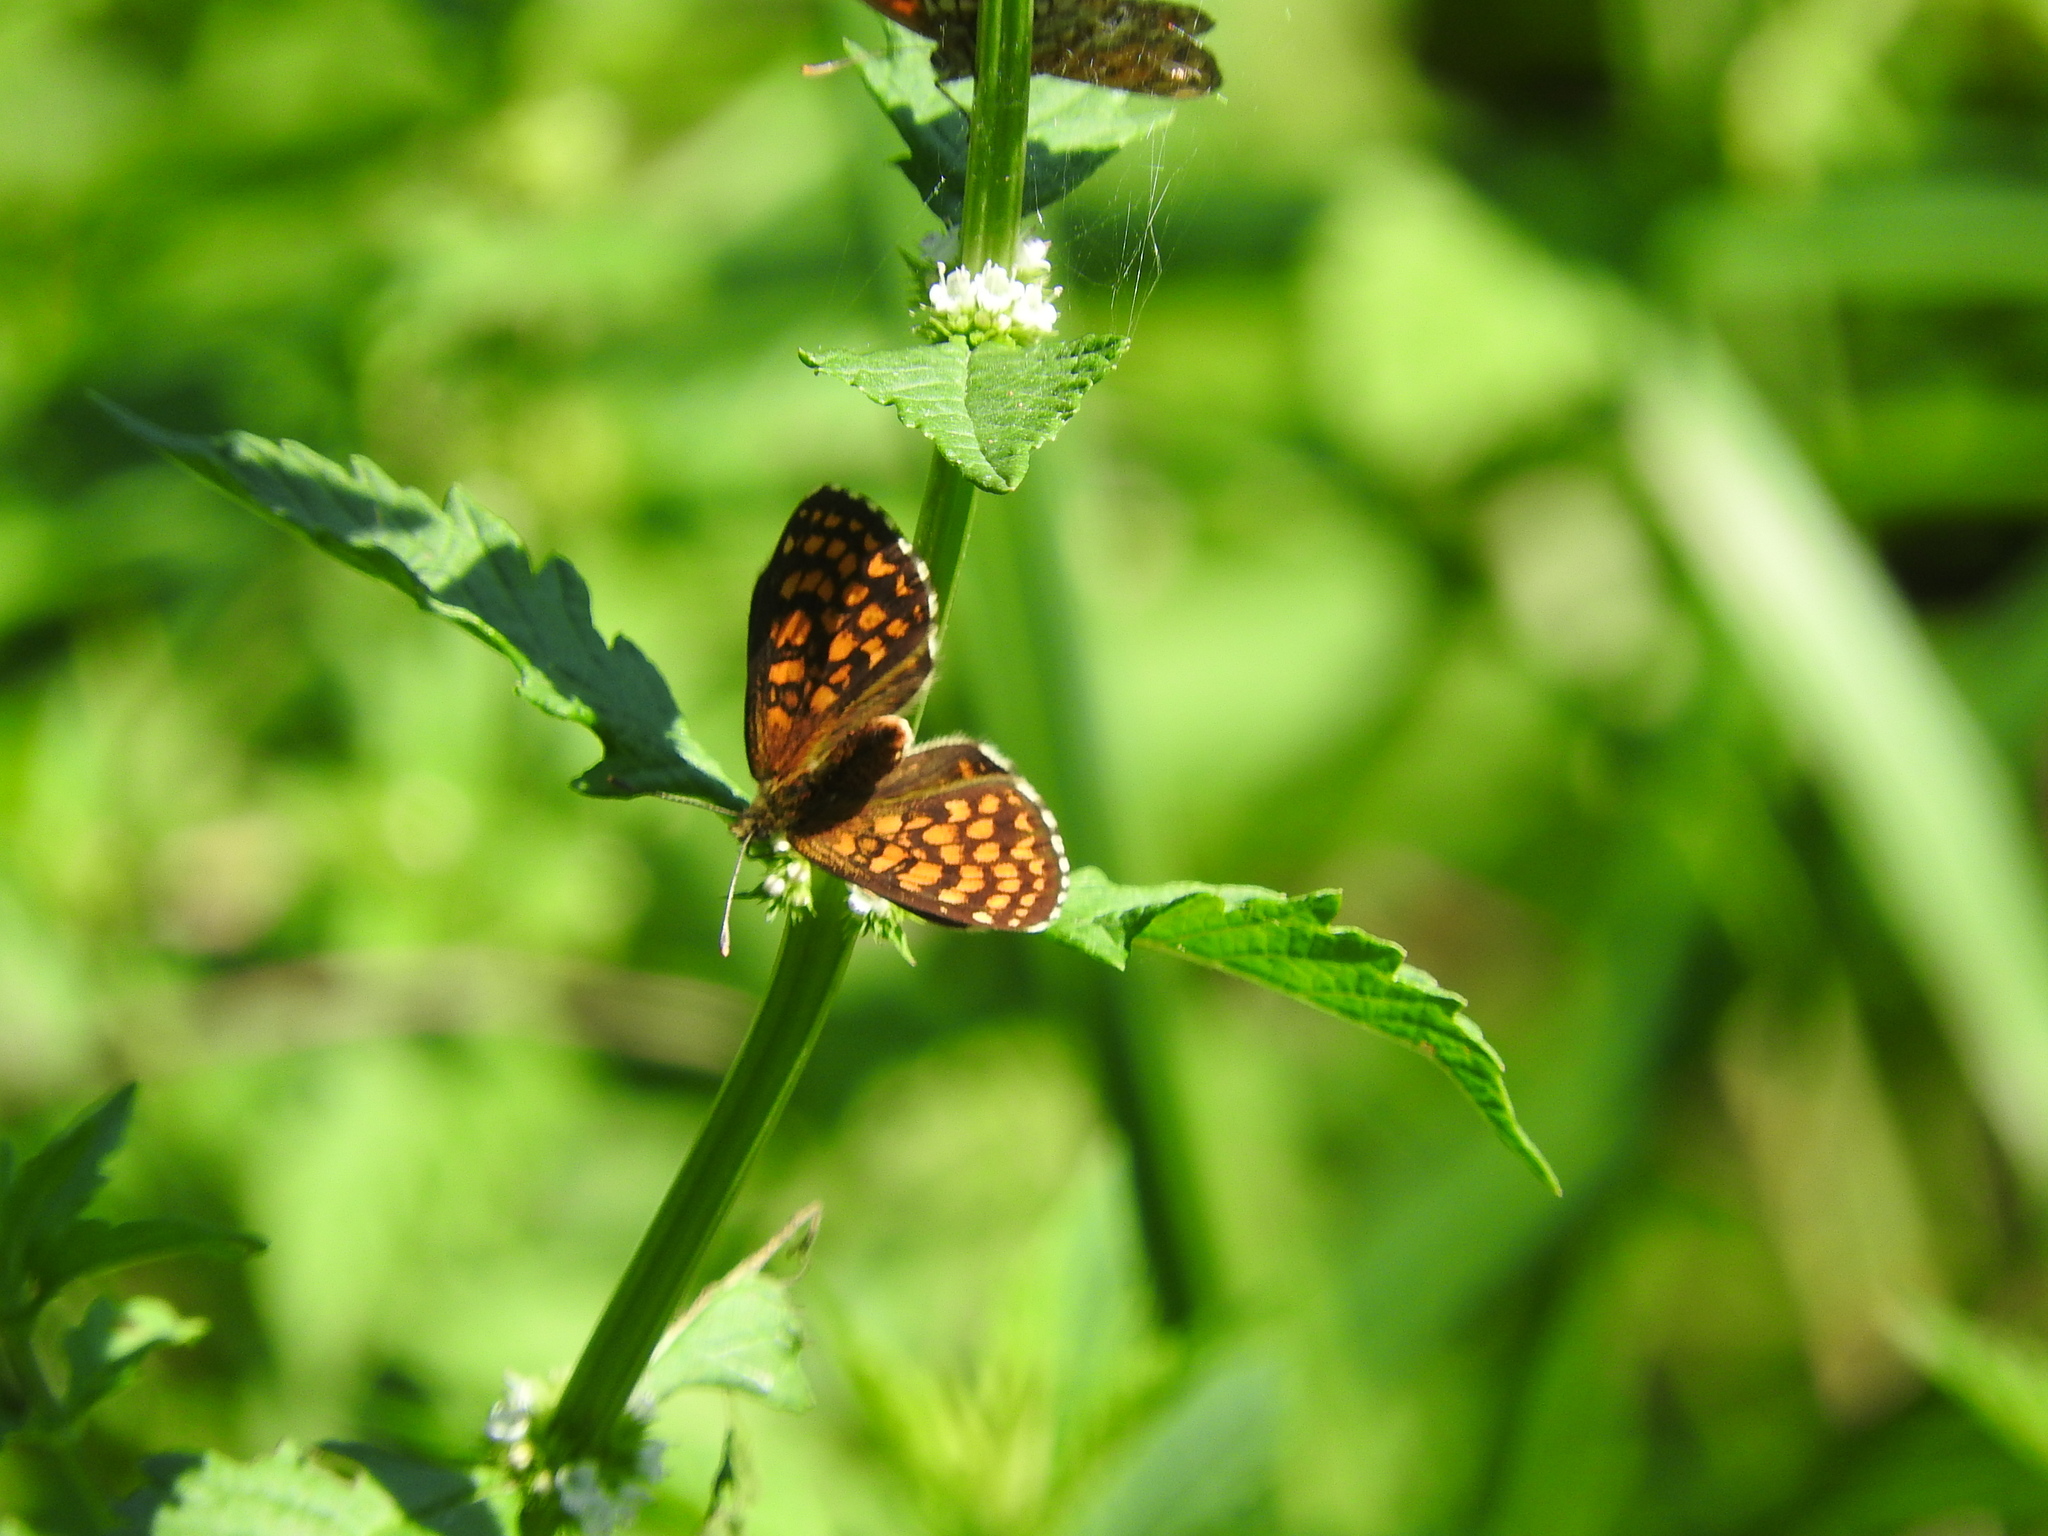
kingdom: Animalia
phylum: Arthropoda
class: Insecta
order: Lepidoptera
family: Nymphalidae
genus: Mellicta
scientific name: Mellicta athalia
